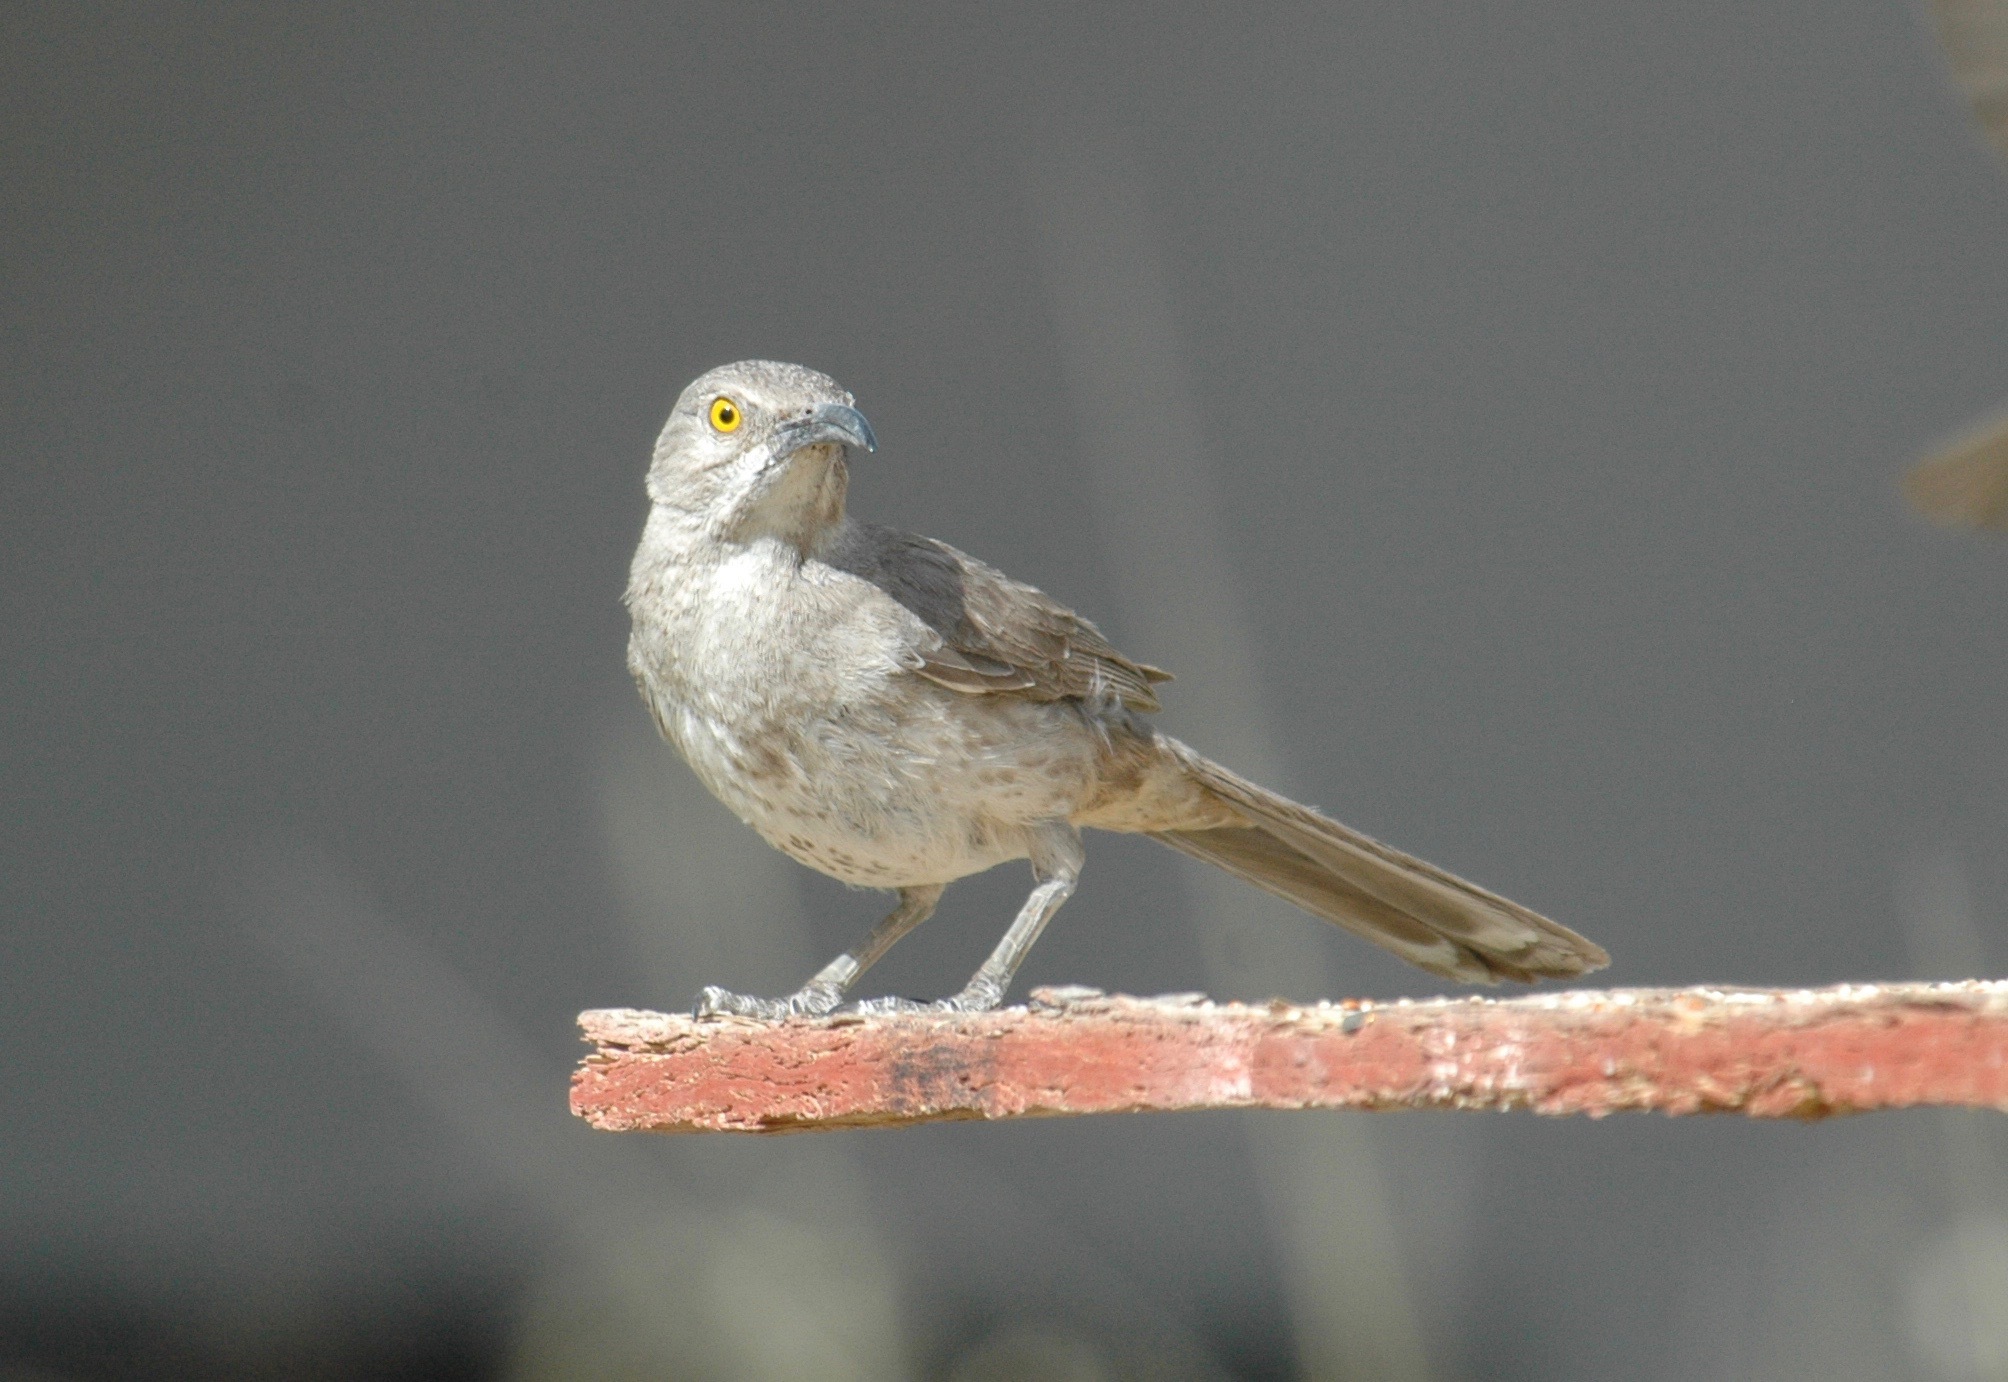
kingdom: Animalia
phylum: Chordata
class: Aves
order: Passeriformes
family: Mimidae
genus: Toxostoma
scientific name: Toxostoma curvirostre
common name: Curve-billed thrasher
